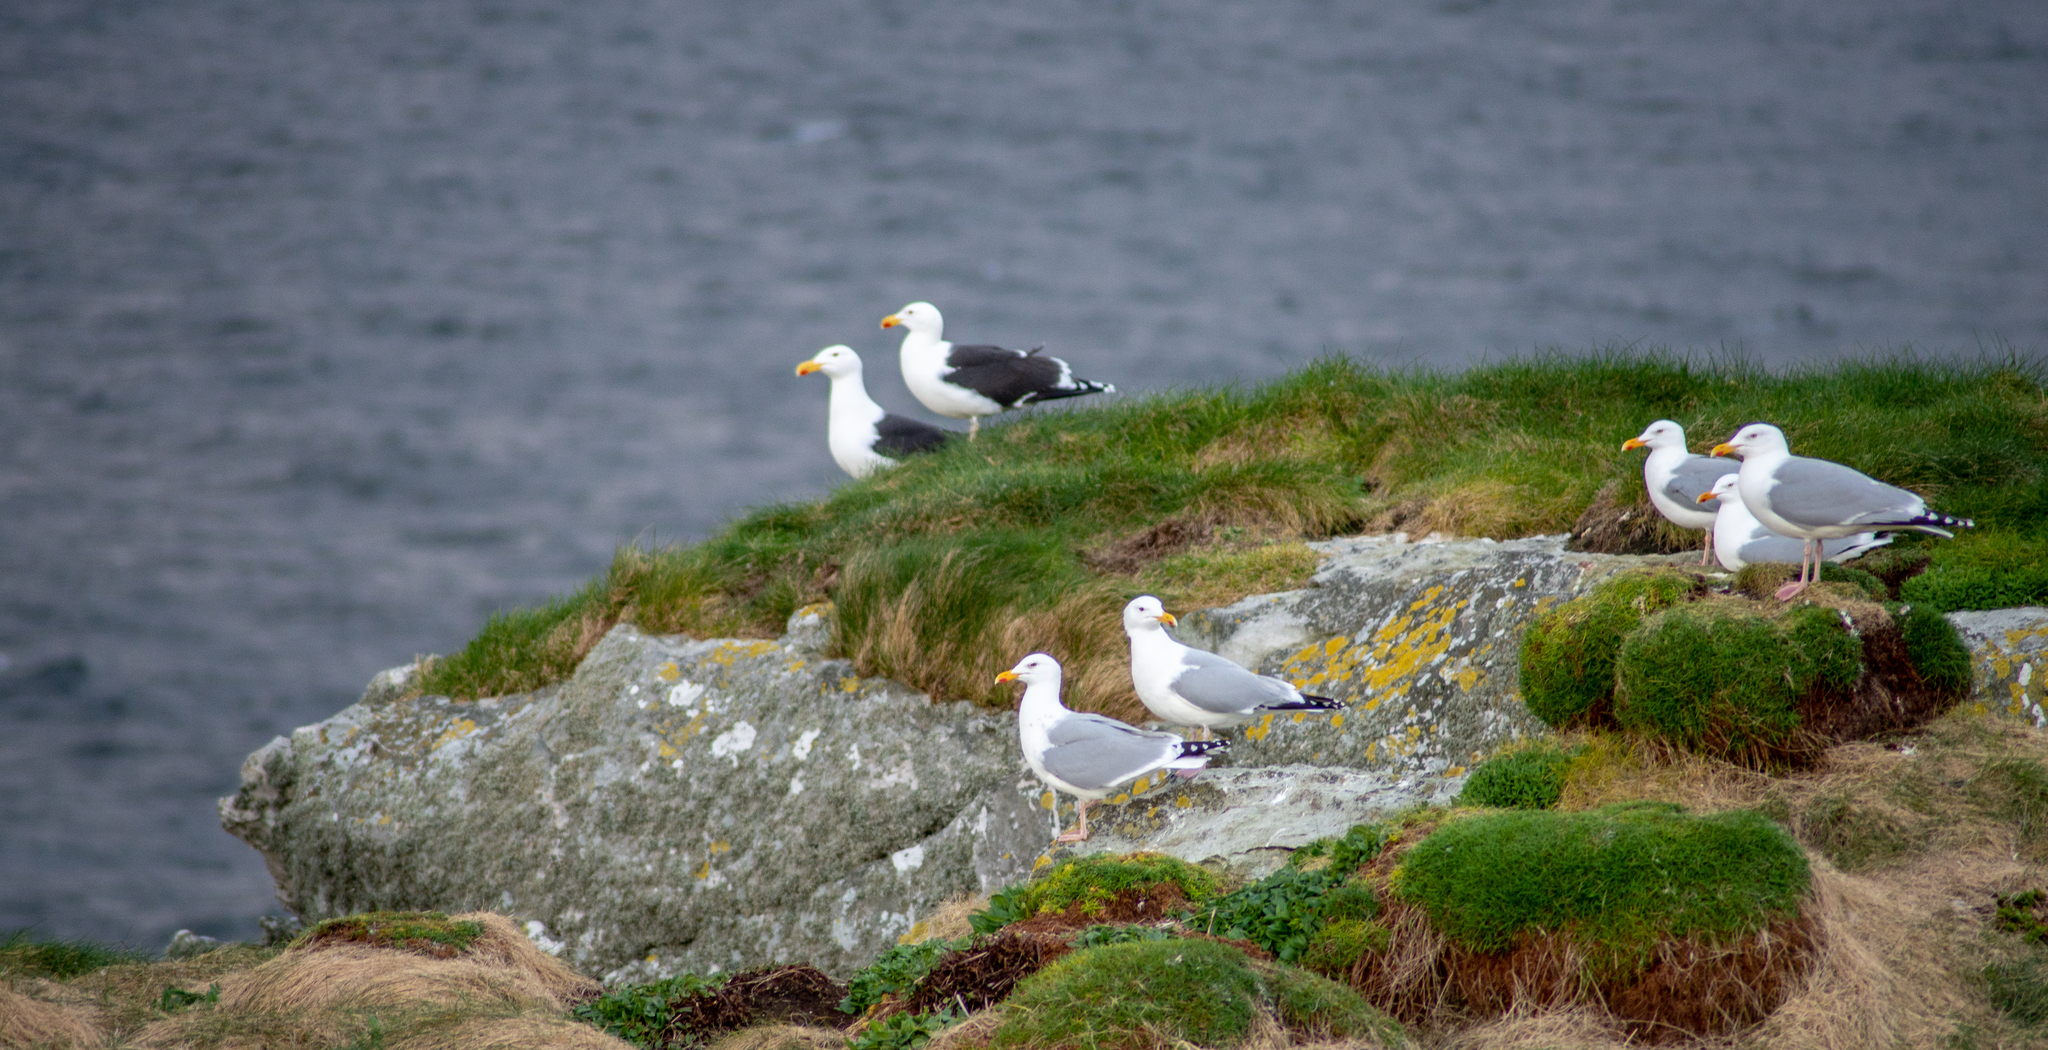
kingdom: Animalia
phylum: Chordata
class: Aves
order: Charadriiformes
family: Laridae
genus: Larus
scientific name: Larus fuscus
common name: Lesser black-backed gull
